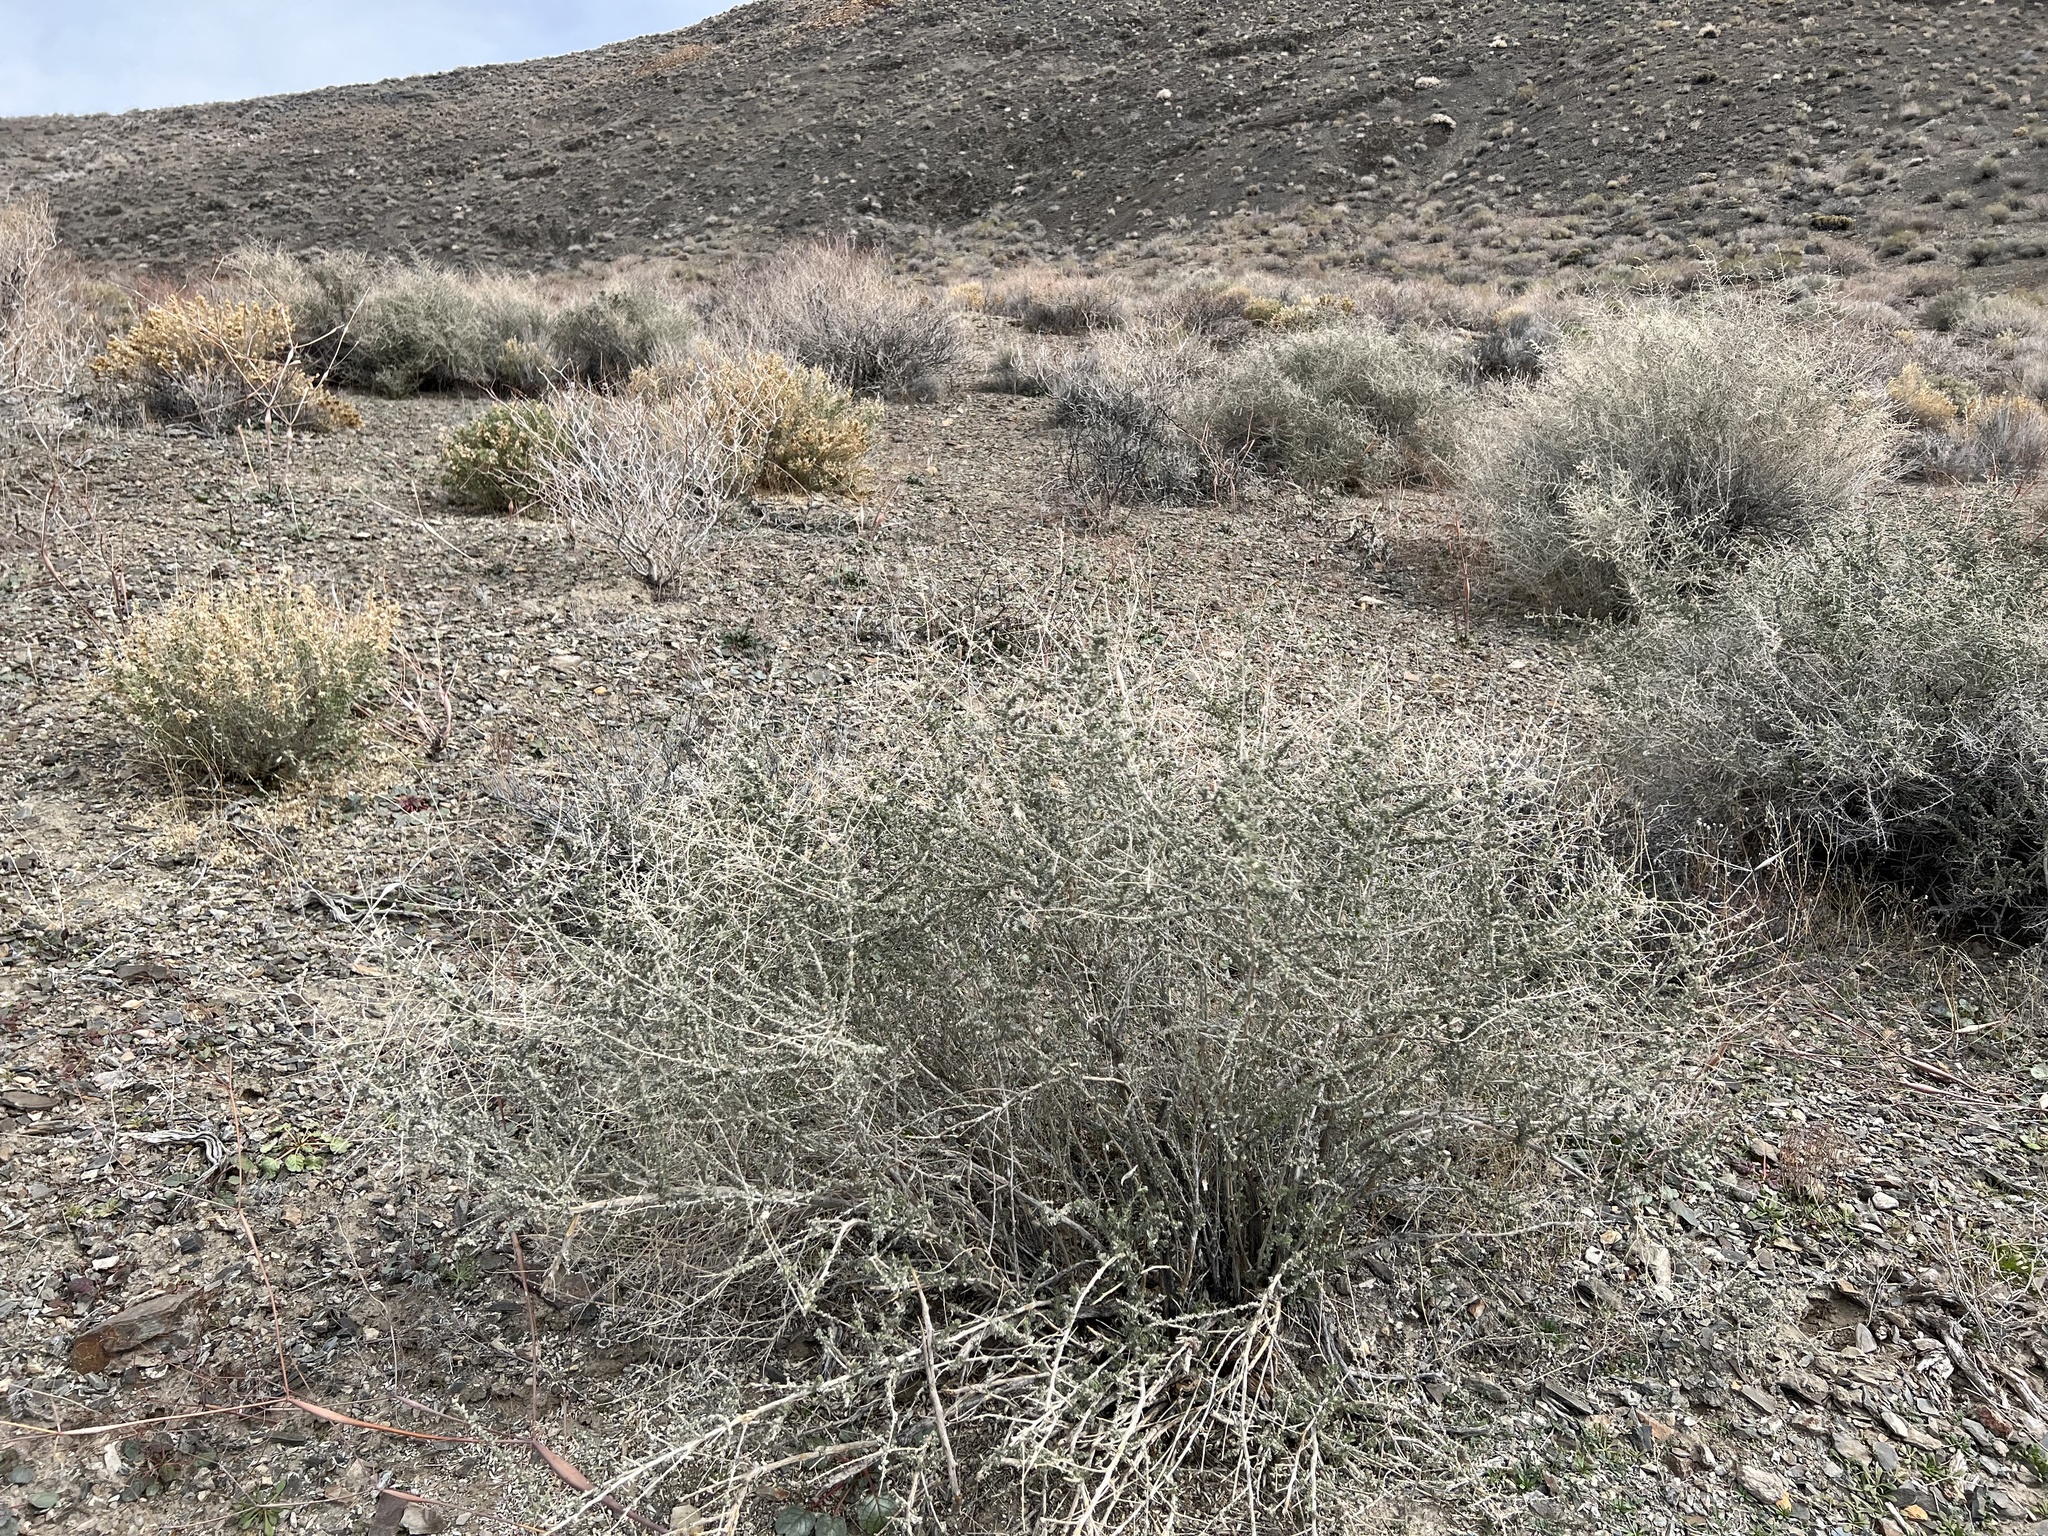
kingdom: Plantae
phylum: Tracheophyta
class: Magnoliopsida
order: Caryophyllales
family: Amaranthaceae
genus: Atriplex
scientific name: Atriplex polycarpa
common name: Desert saltbush
